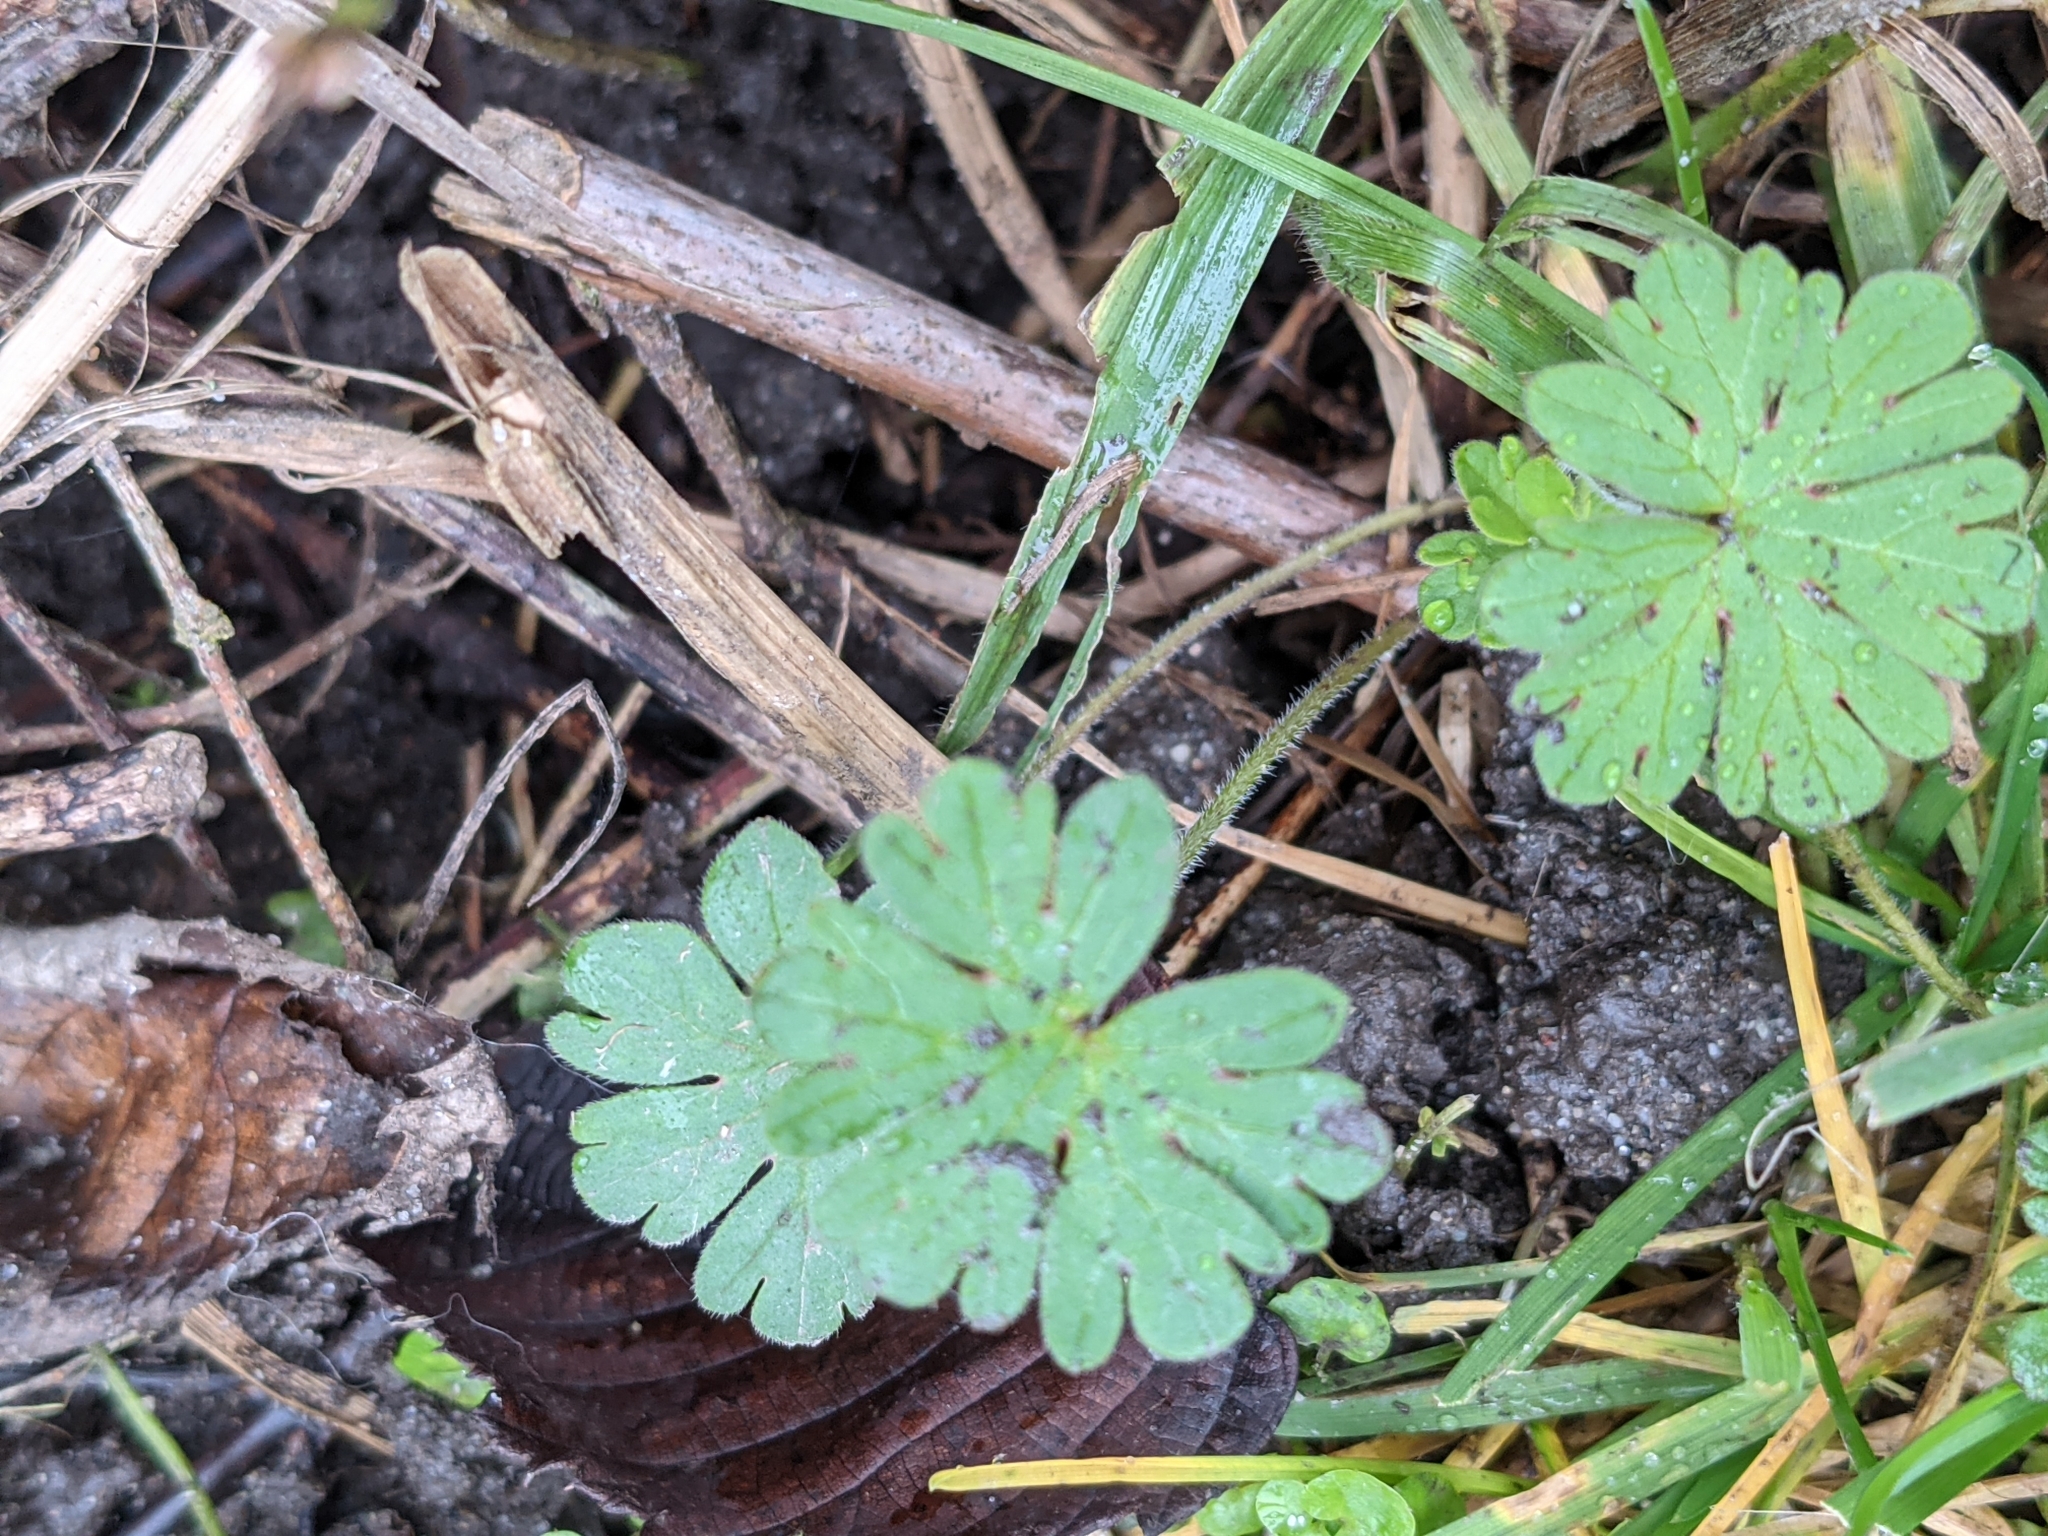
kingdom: Plantae
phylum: Tracheophyta
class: Magnoliopsida
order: Geraniales
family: Geraniaceae
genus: Geranium
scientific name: Geranium molle
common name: Dove's-foot crane's-bill
